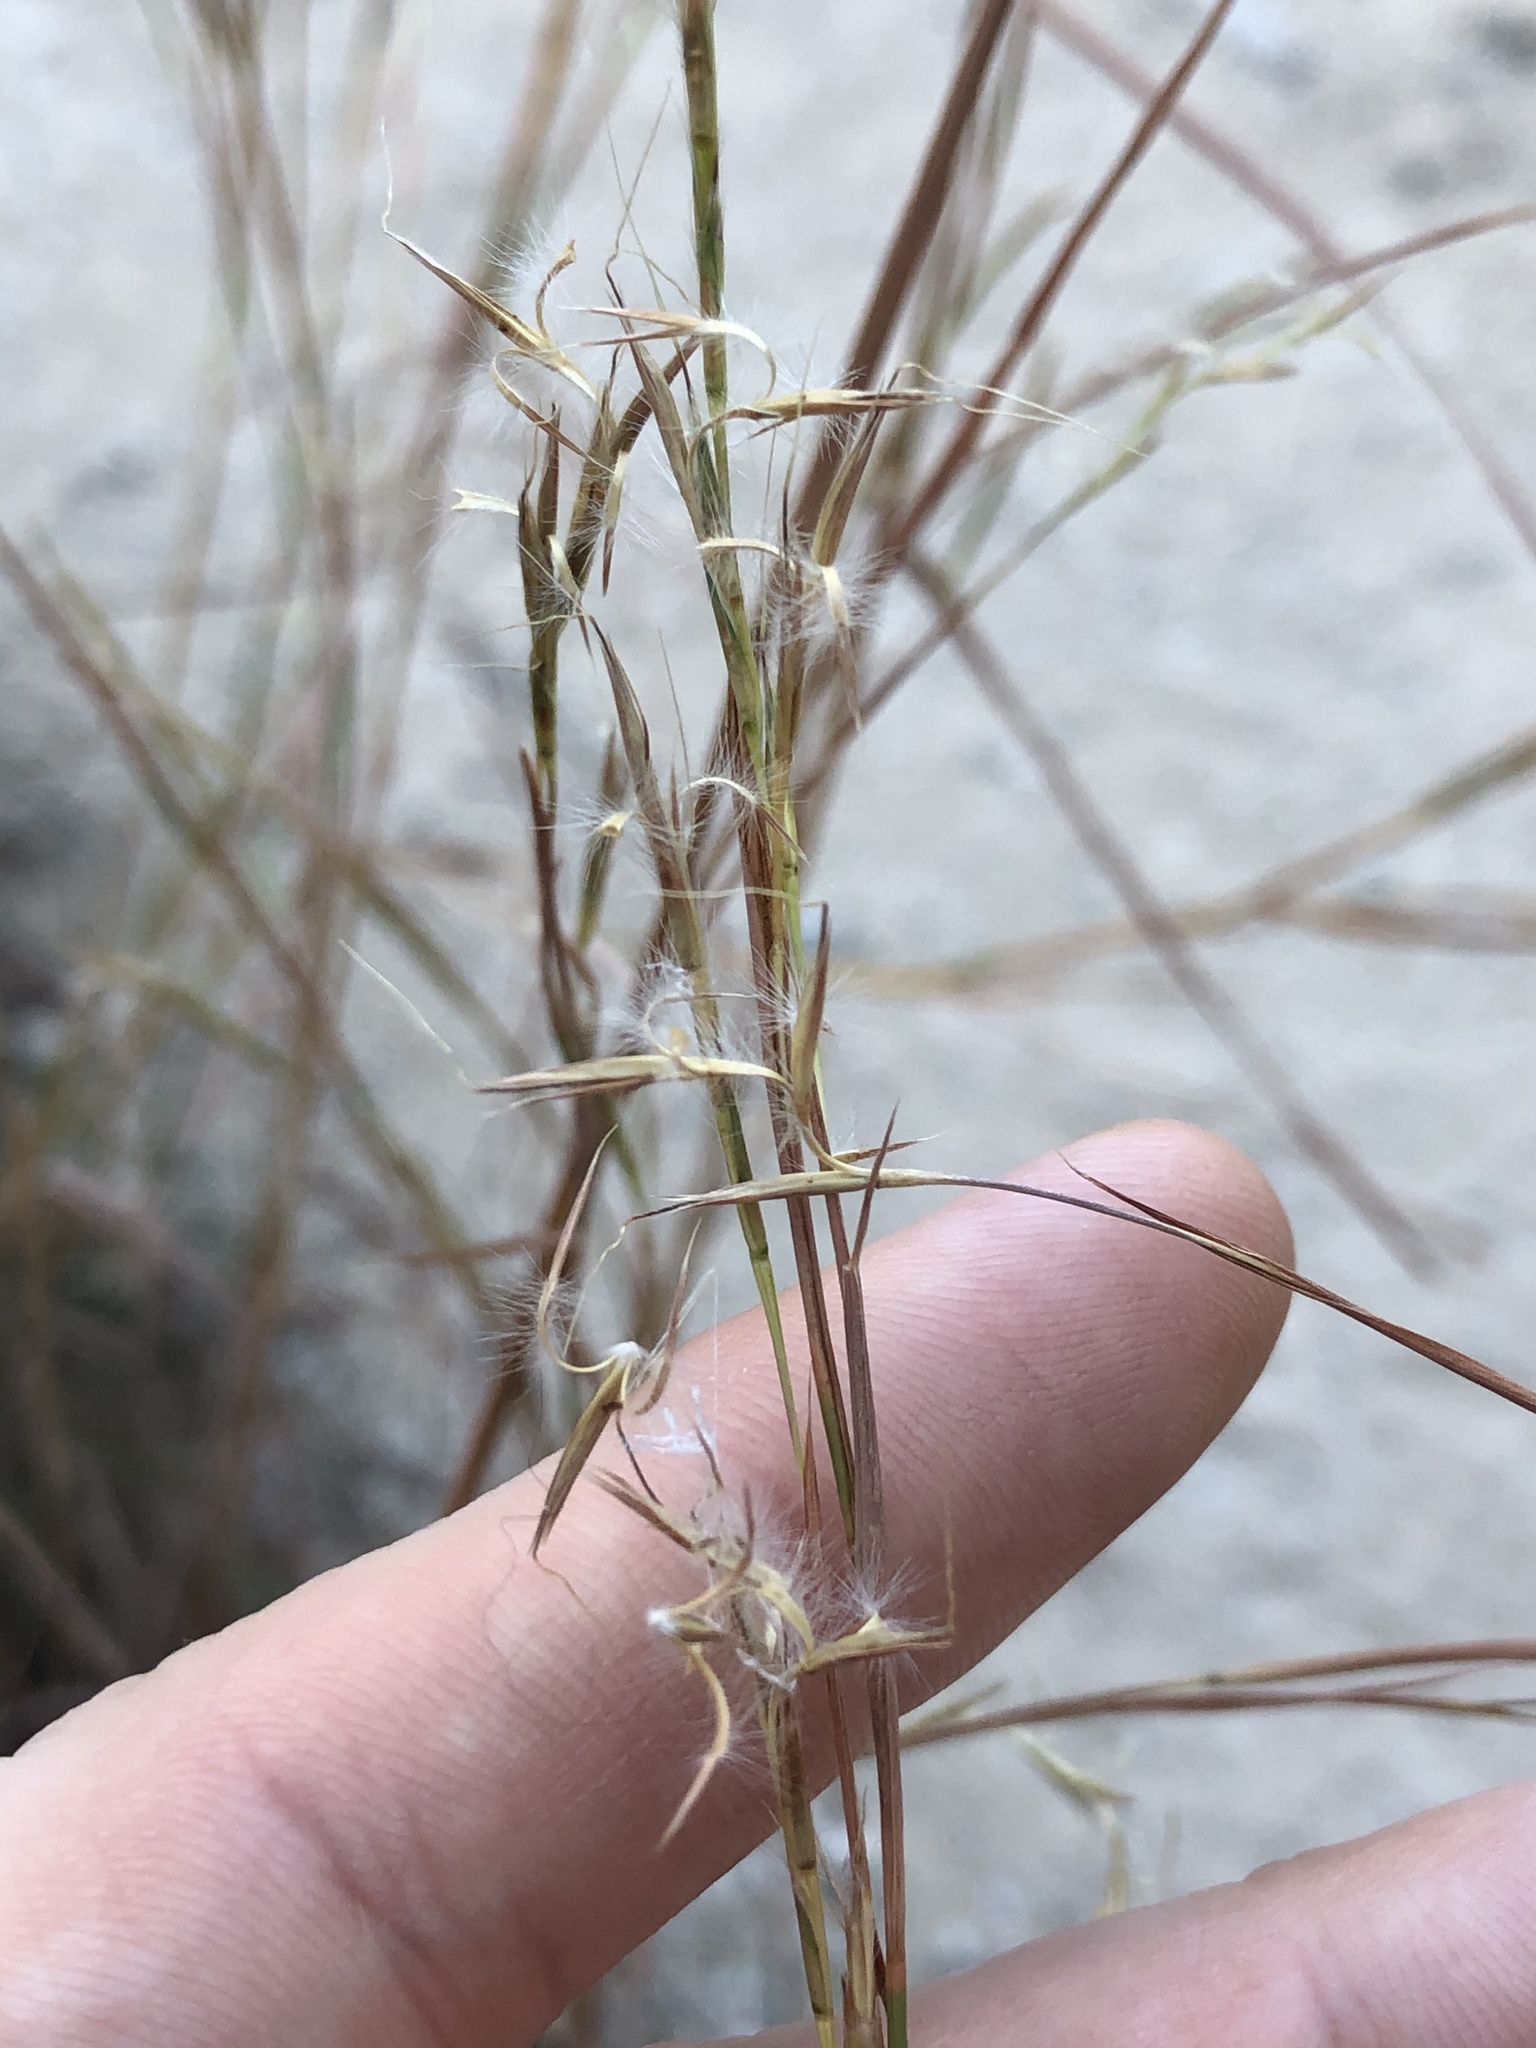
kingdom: Plantae
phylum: Tracheophyta
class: Liliopsida
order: Poales
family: Poaceae
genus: Schizachyrium
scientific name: Schizachyrium scoparium
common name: Little bluestem
